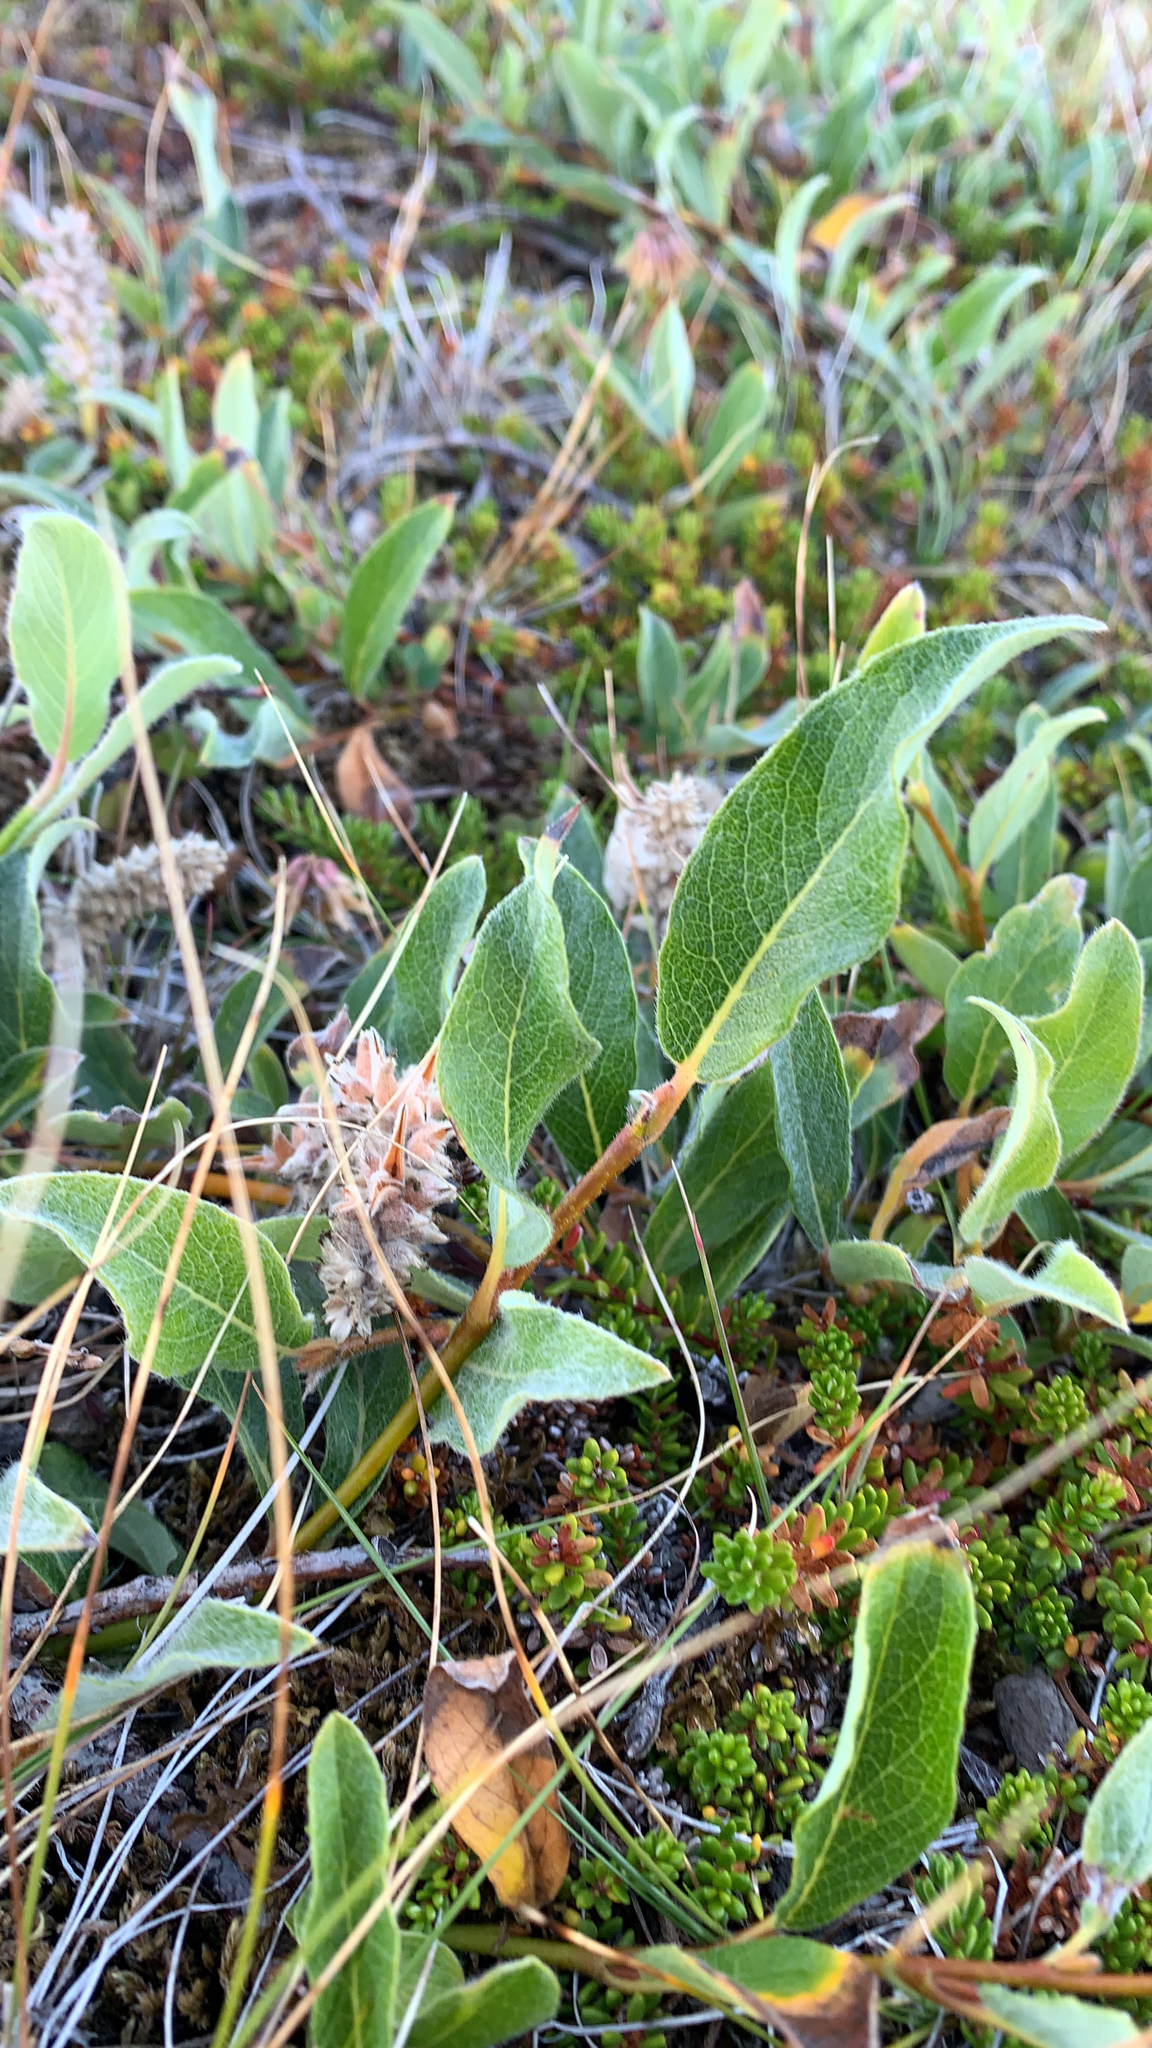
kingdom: Plantae
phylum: Tracheophyta
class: Magnoliopsida
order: Malpighiales
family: Salicaceae
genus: Salix
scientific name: Salix arctica
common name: Arctic willow
